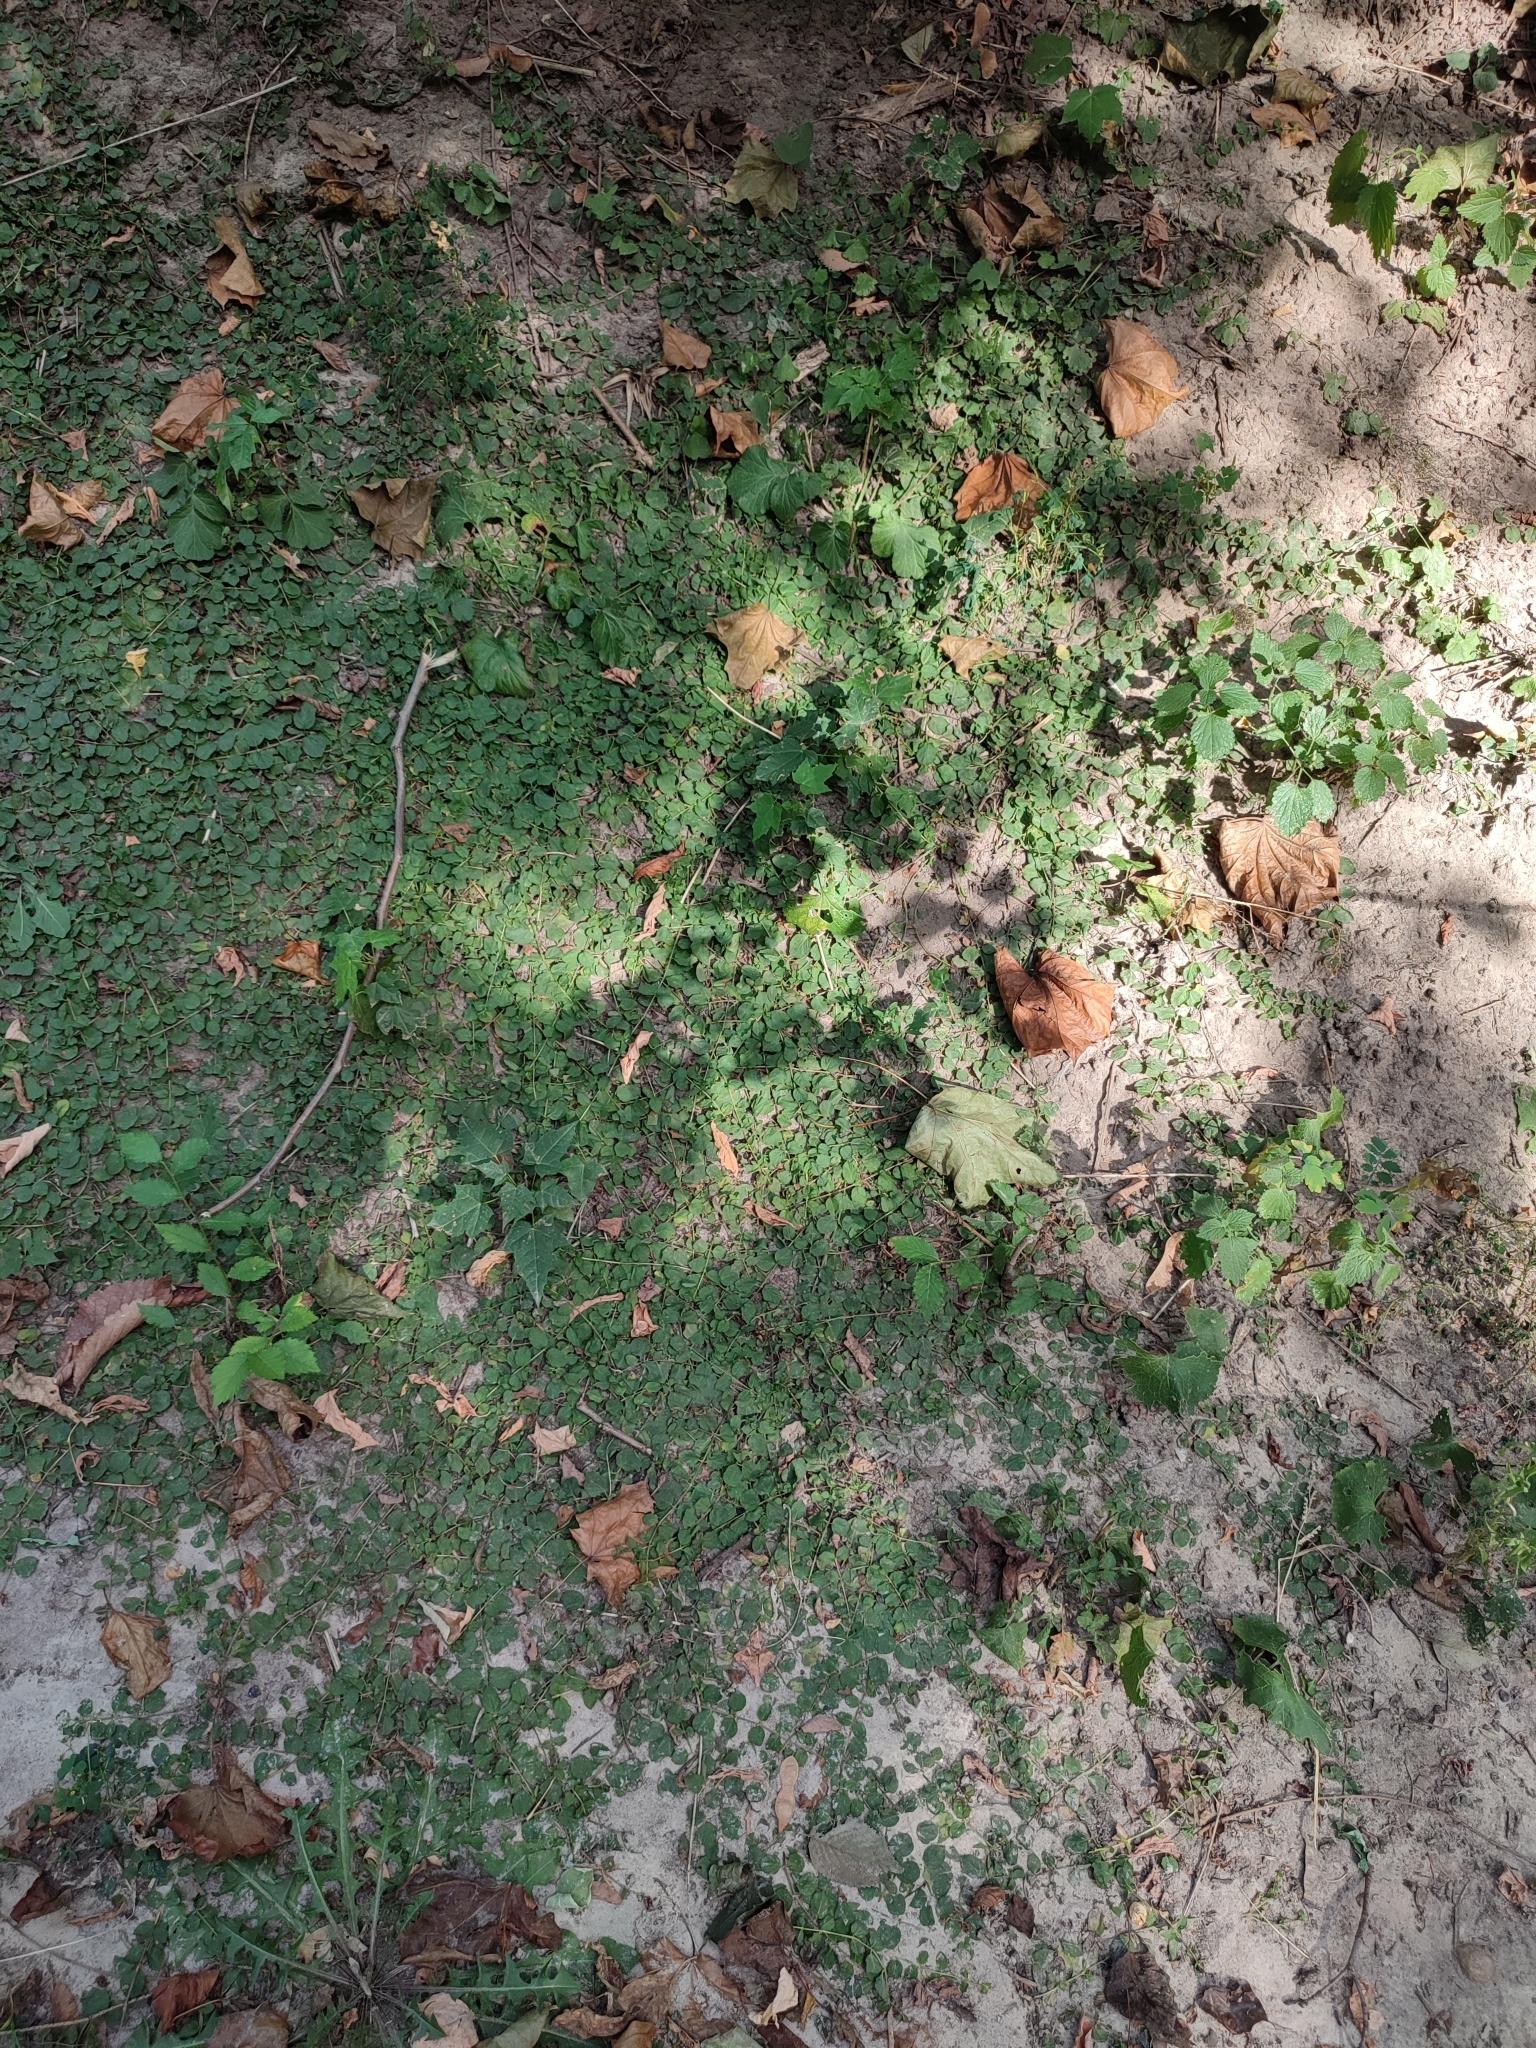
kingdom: Plantae
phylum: Tracheophyta
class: Magnoliopsida
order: Ericales
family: Primulaceae
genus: Lysimachia
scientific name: Lysimachia nummularia
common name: Moneywort
